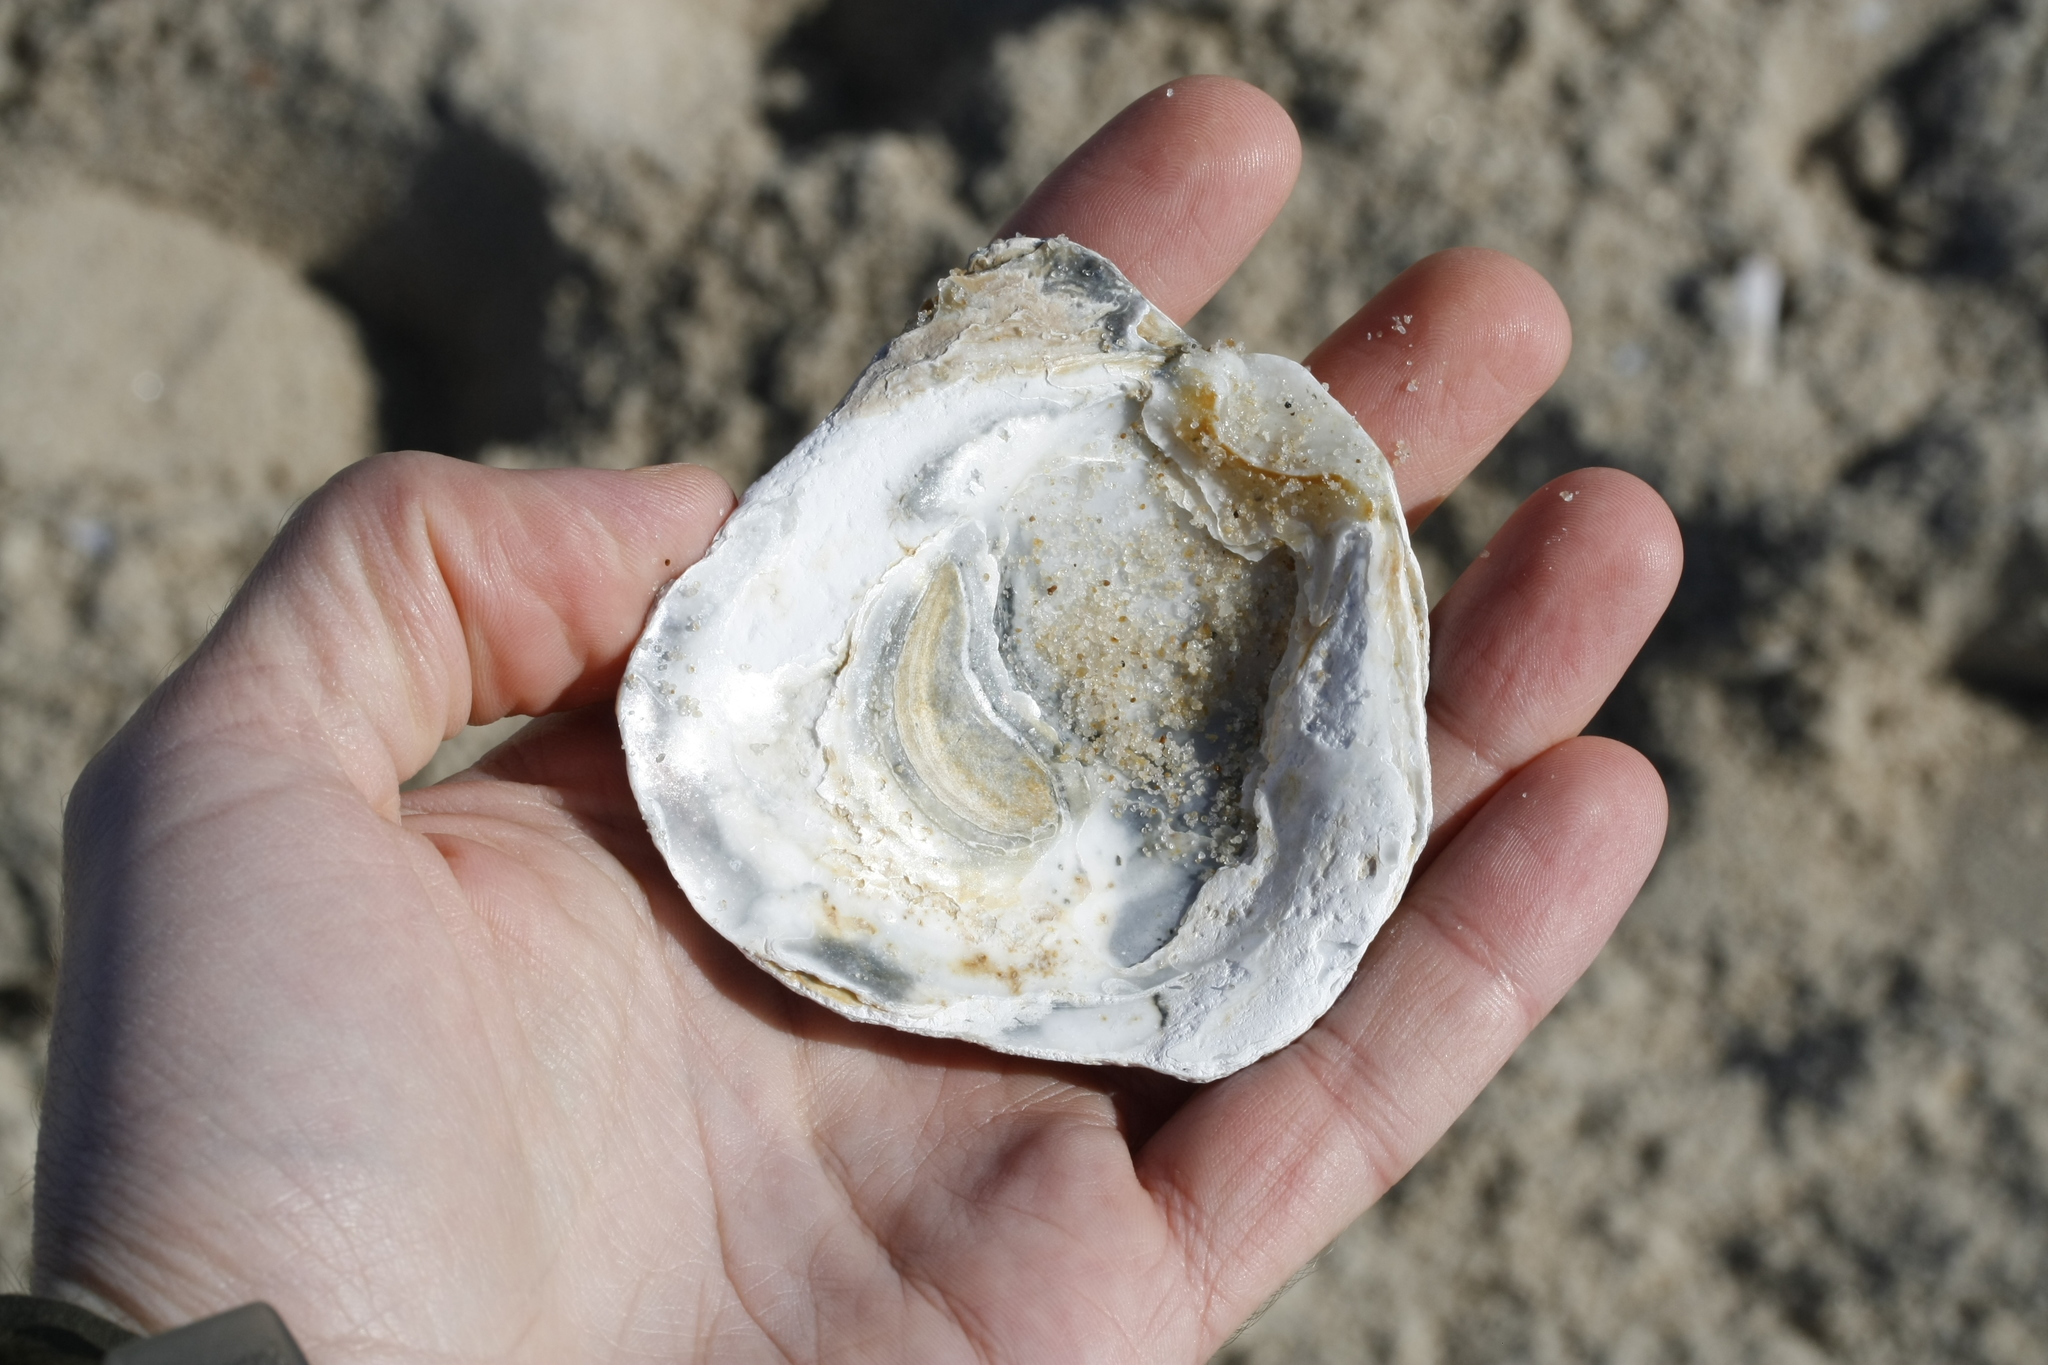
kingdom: Animalia
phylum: Mollusca
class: Bivalvia
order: Ostreida
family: Ostreidae
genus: Ostrea
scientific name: Ostrea edulis
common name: Flat oyster
